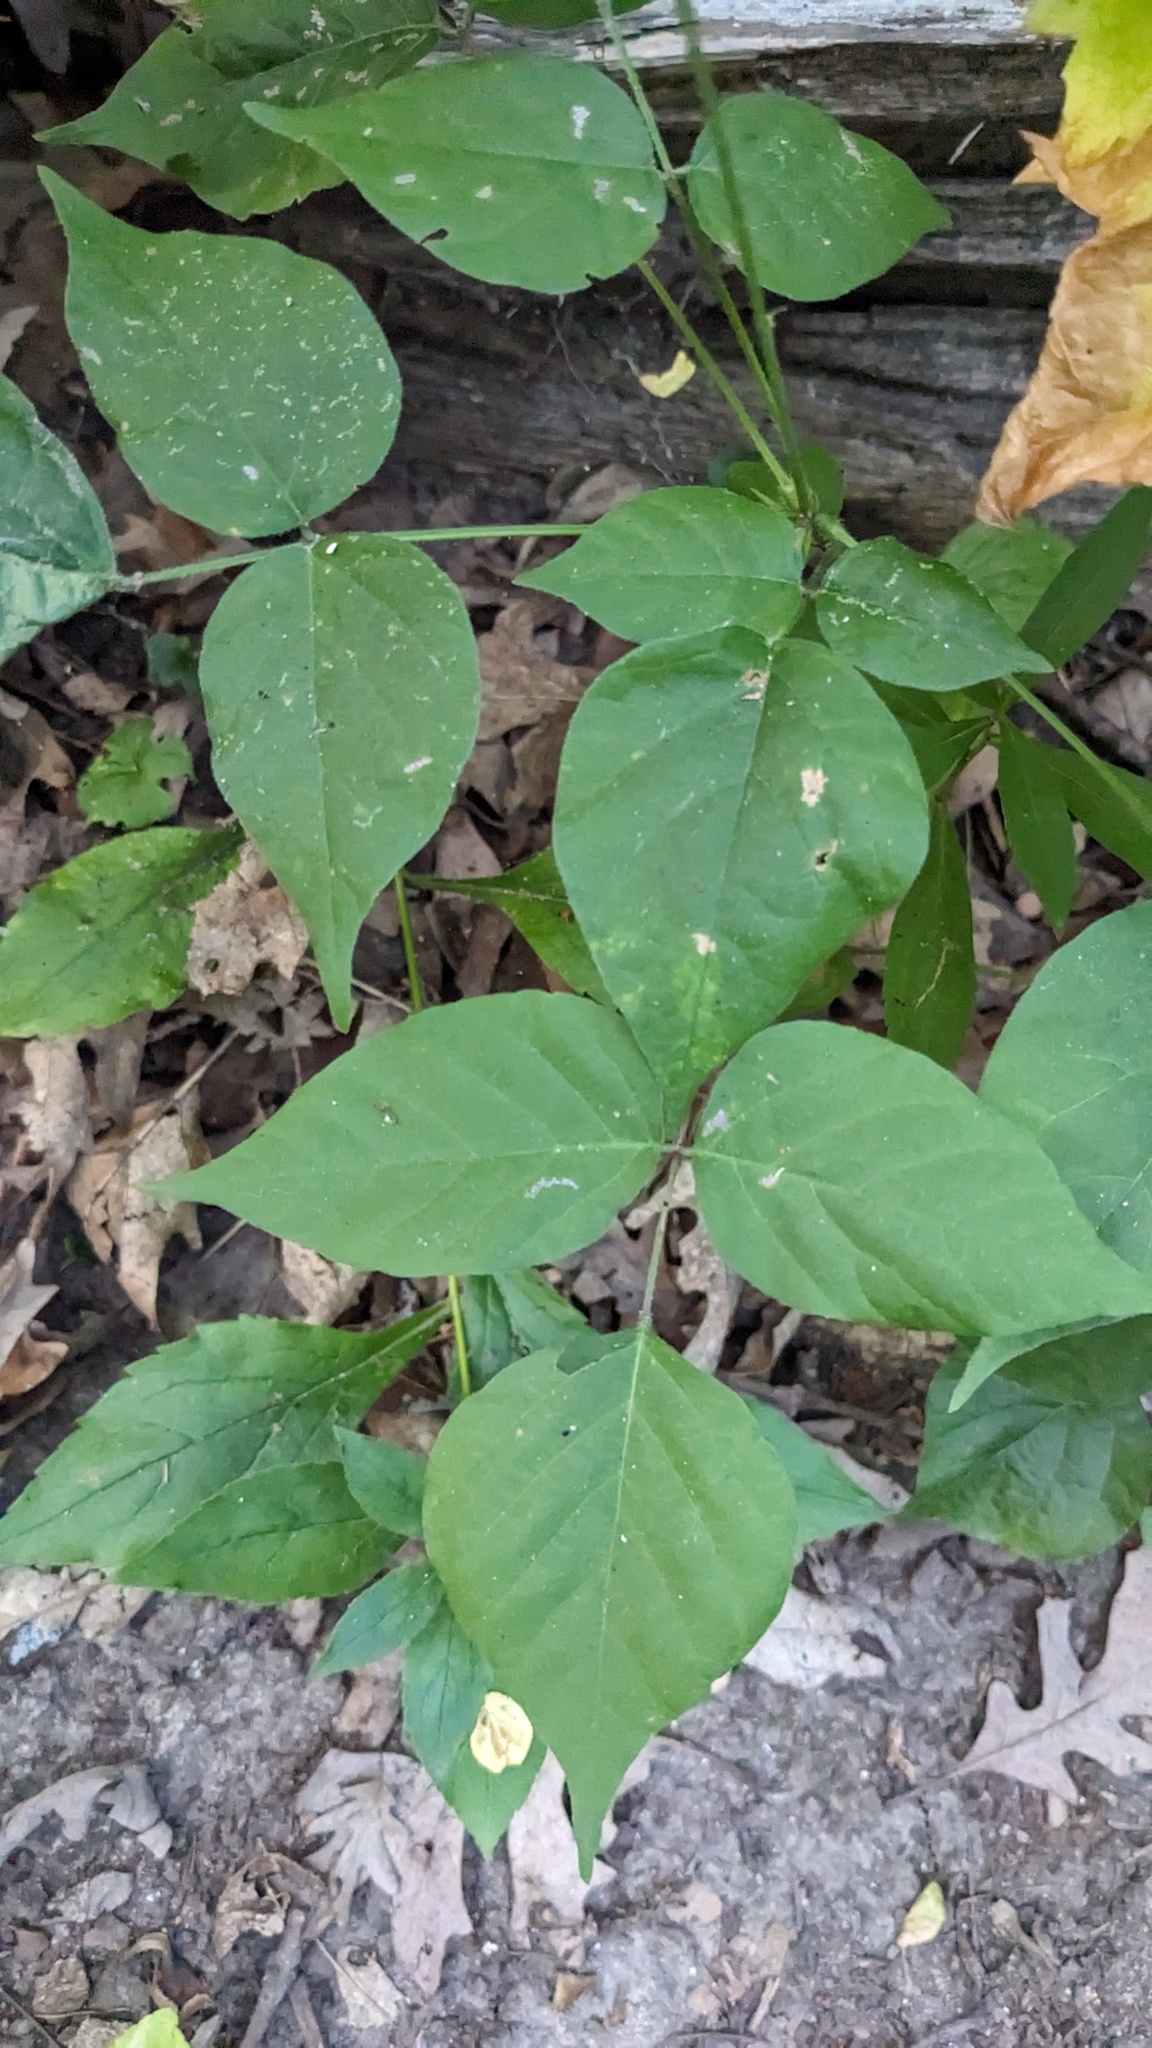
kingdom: Plantae
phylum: Tracheophyta
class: Magnoliopsida
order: Fabales
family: Fabaceae
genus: Hylodesmum
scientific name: Hylodesmum glutinosum
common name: Clustered-leaved tick-trefoil
